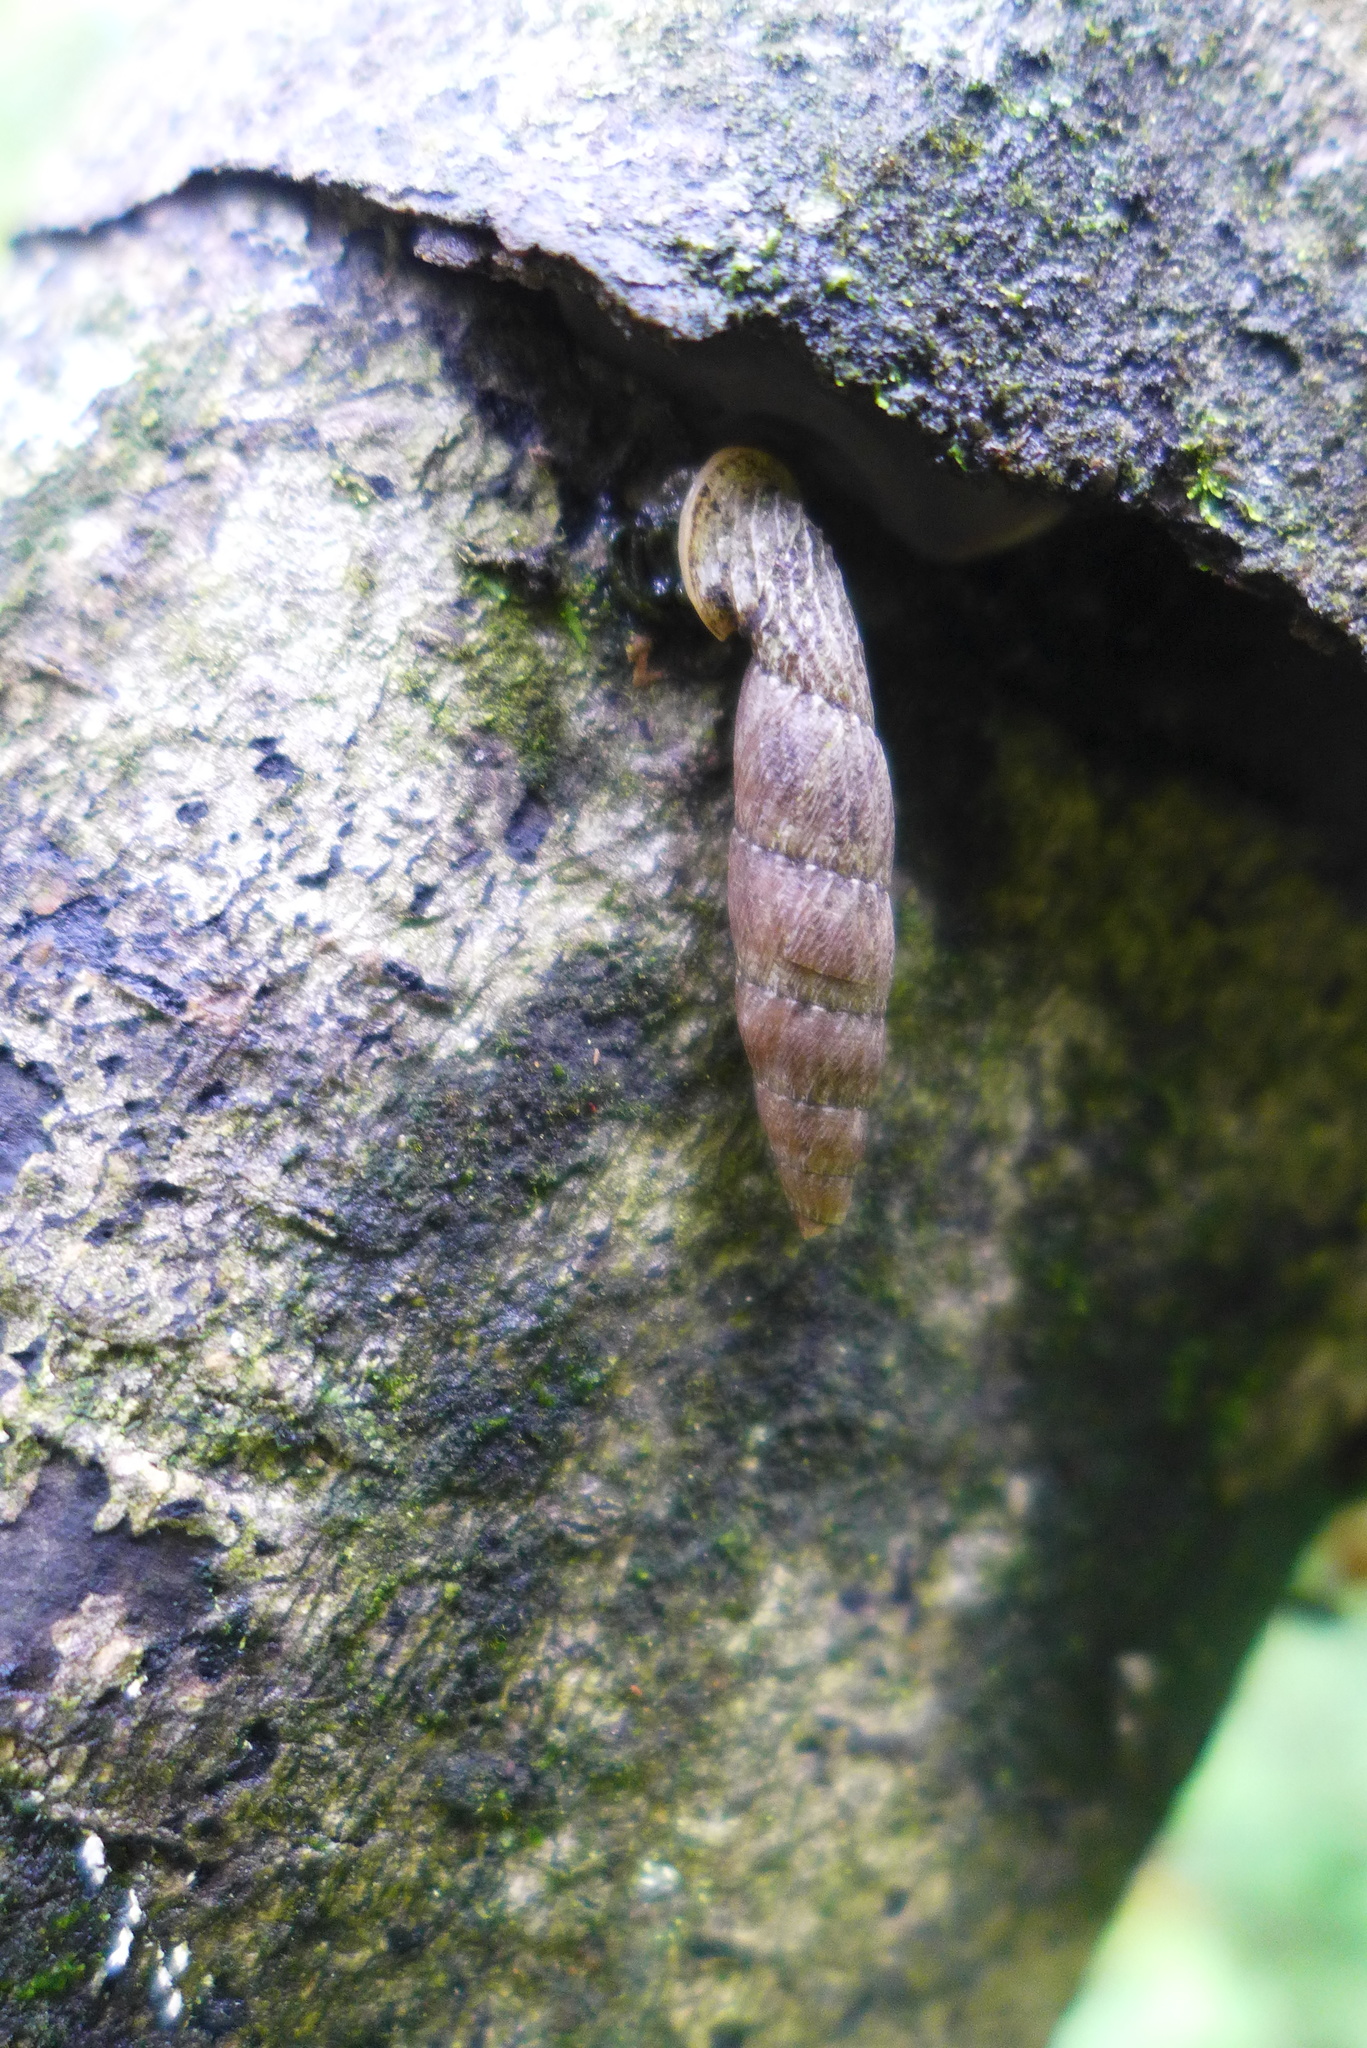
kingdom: Animalia
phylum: Mollusca
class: Gastropoda
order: Stylommatophora
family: Clausiliidae
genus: Nenia
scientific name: Nenia tridens
